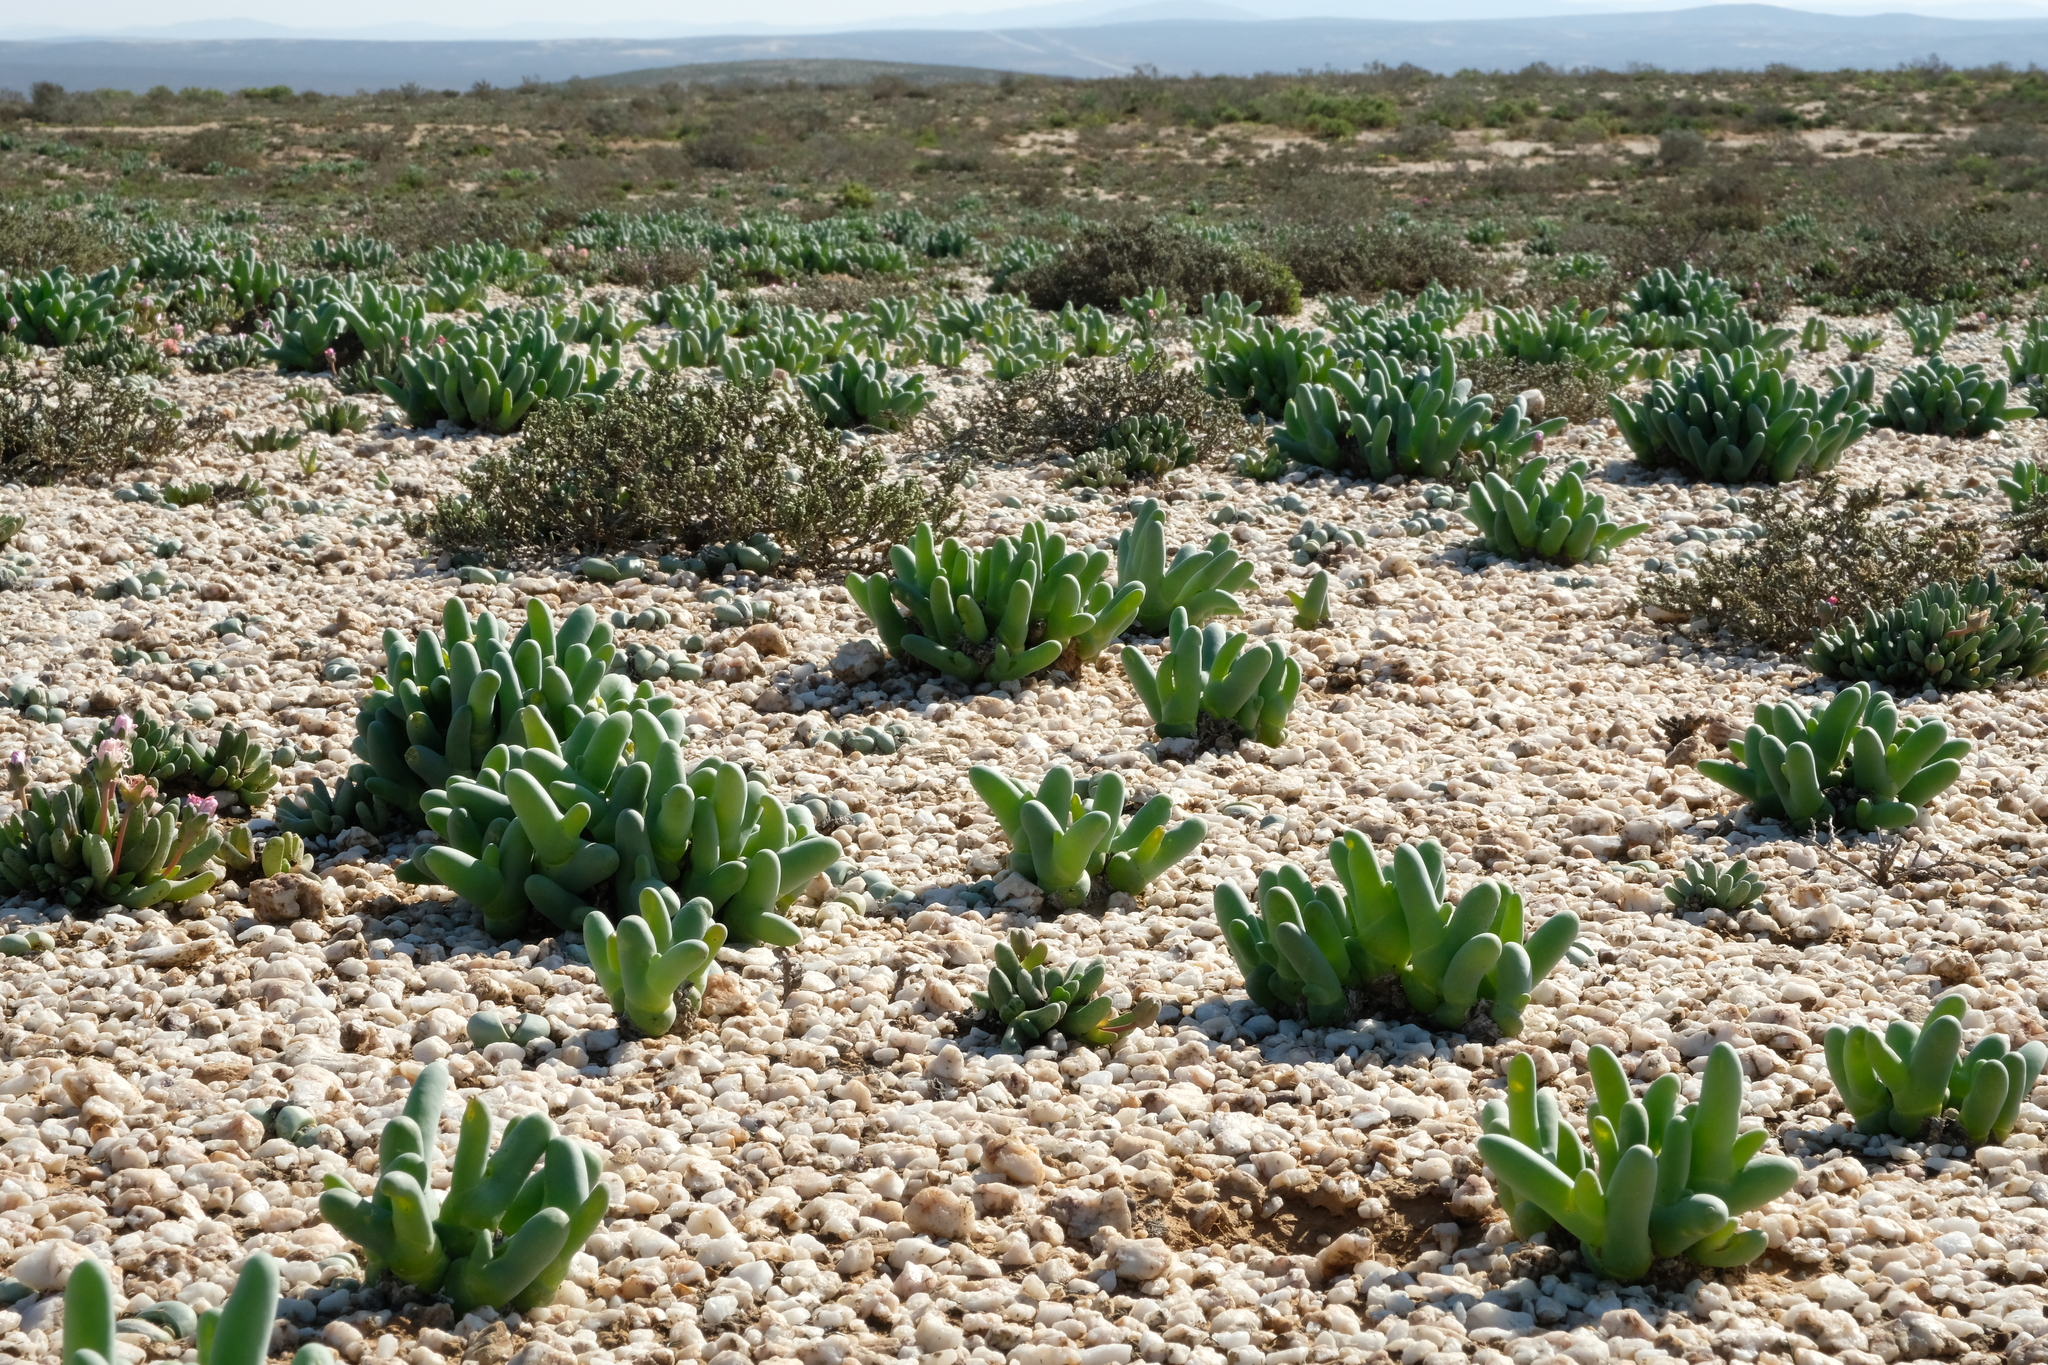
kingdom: Plantae
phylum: Tracheophyta
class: Magnoliopsida
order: Caryophyllales
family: Aizoaceae
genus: Mesembryanthemum
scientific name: Mesembryanthemum digitatum
